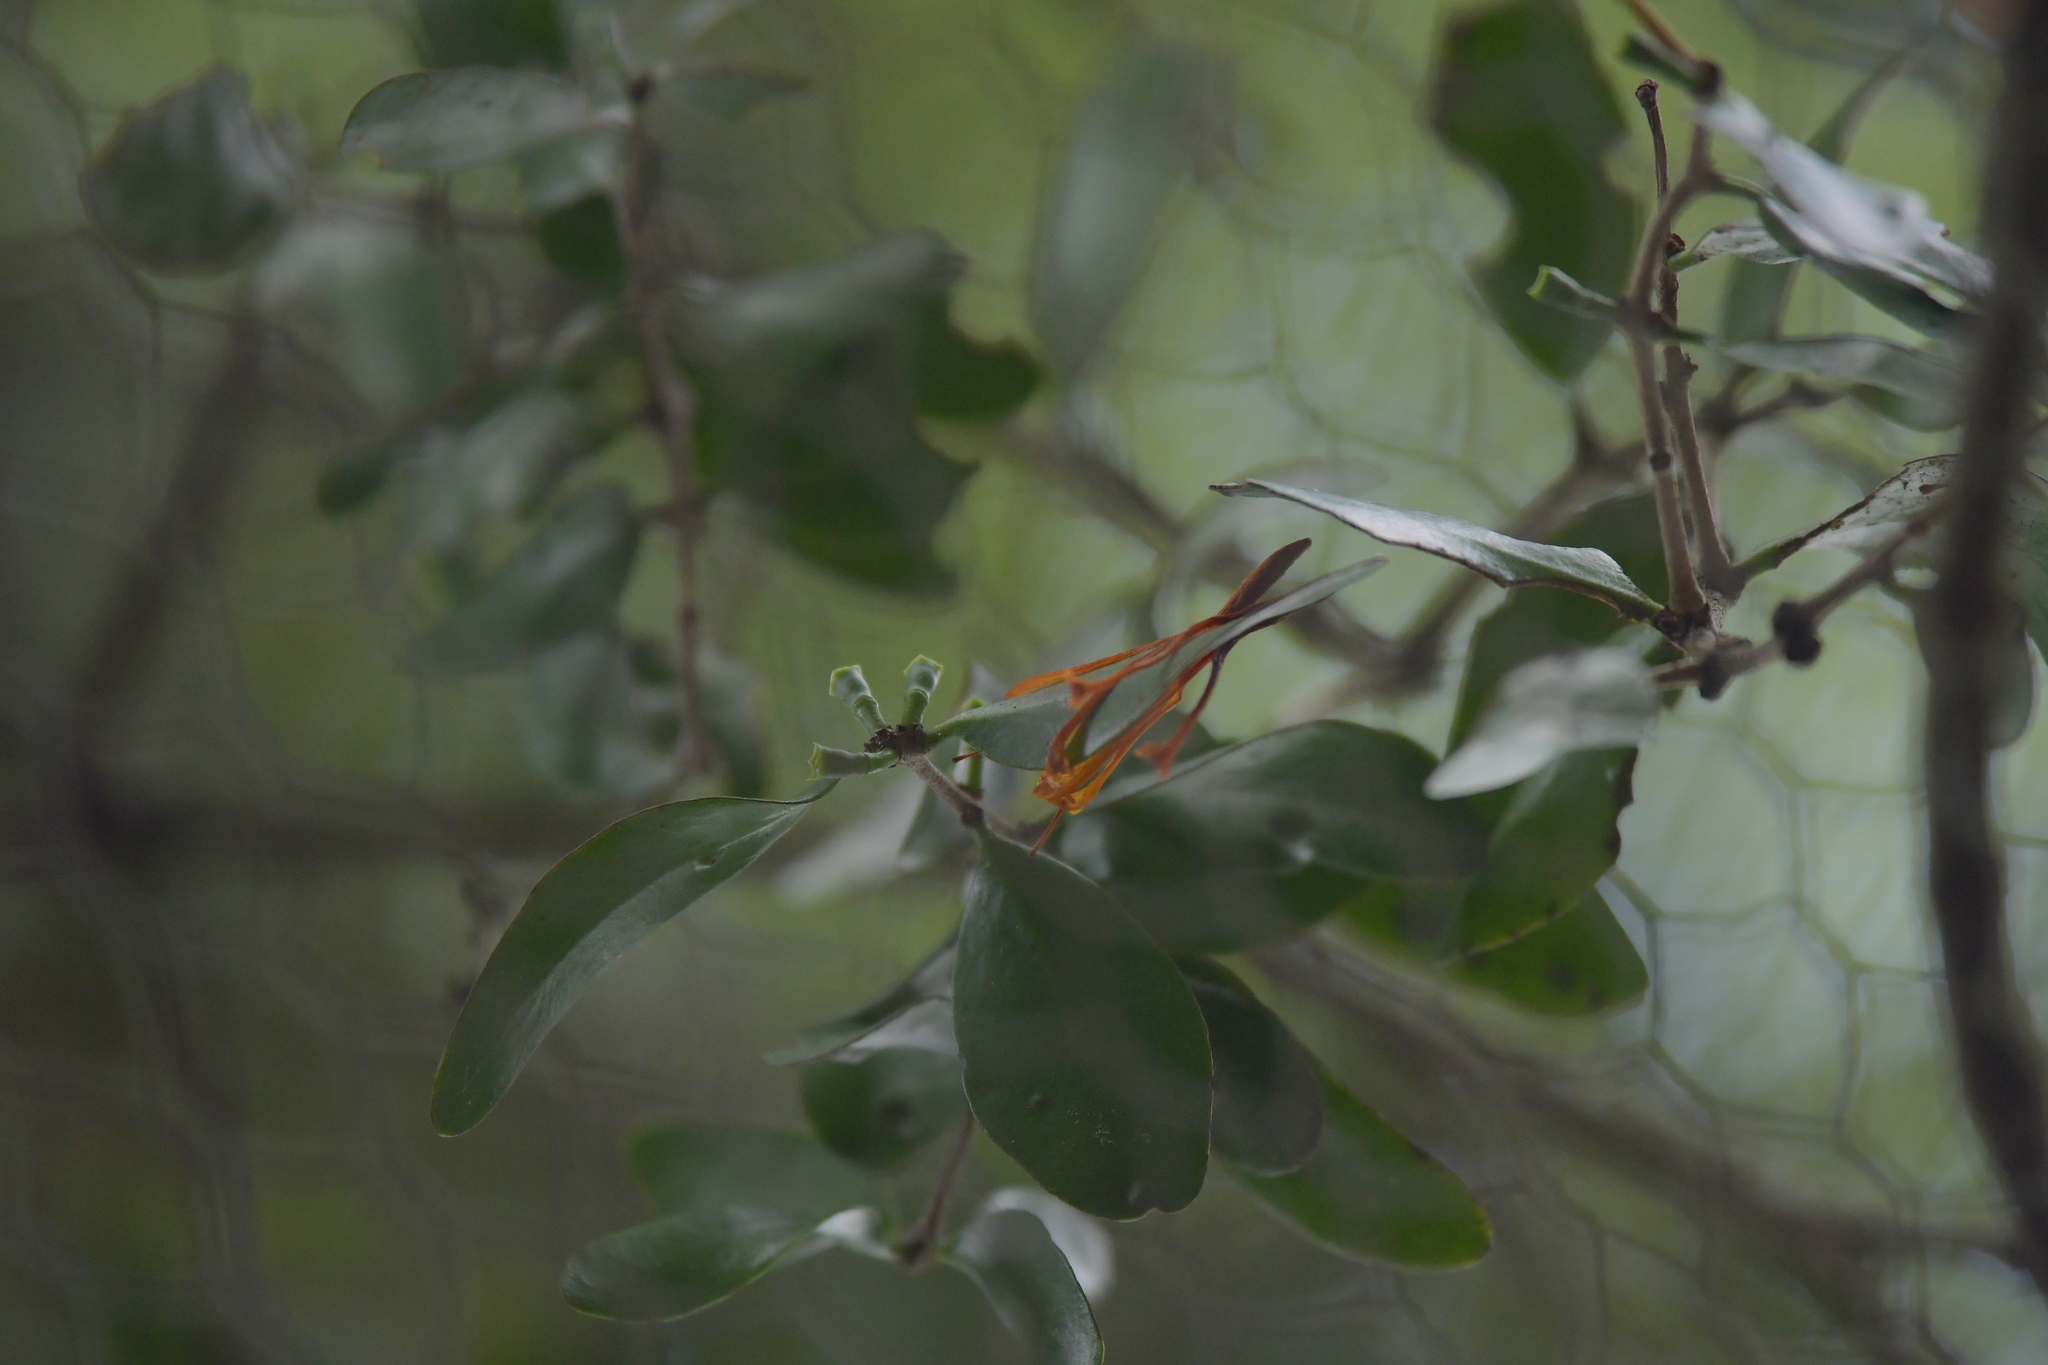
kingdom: Plantae
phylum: Tracheophyta
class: Magnoliopsida
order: Santalales
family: Loranthaceae
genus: Peraxilla
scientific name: Peraxilla tetrapetala
